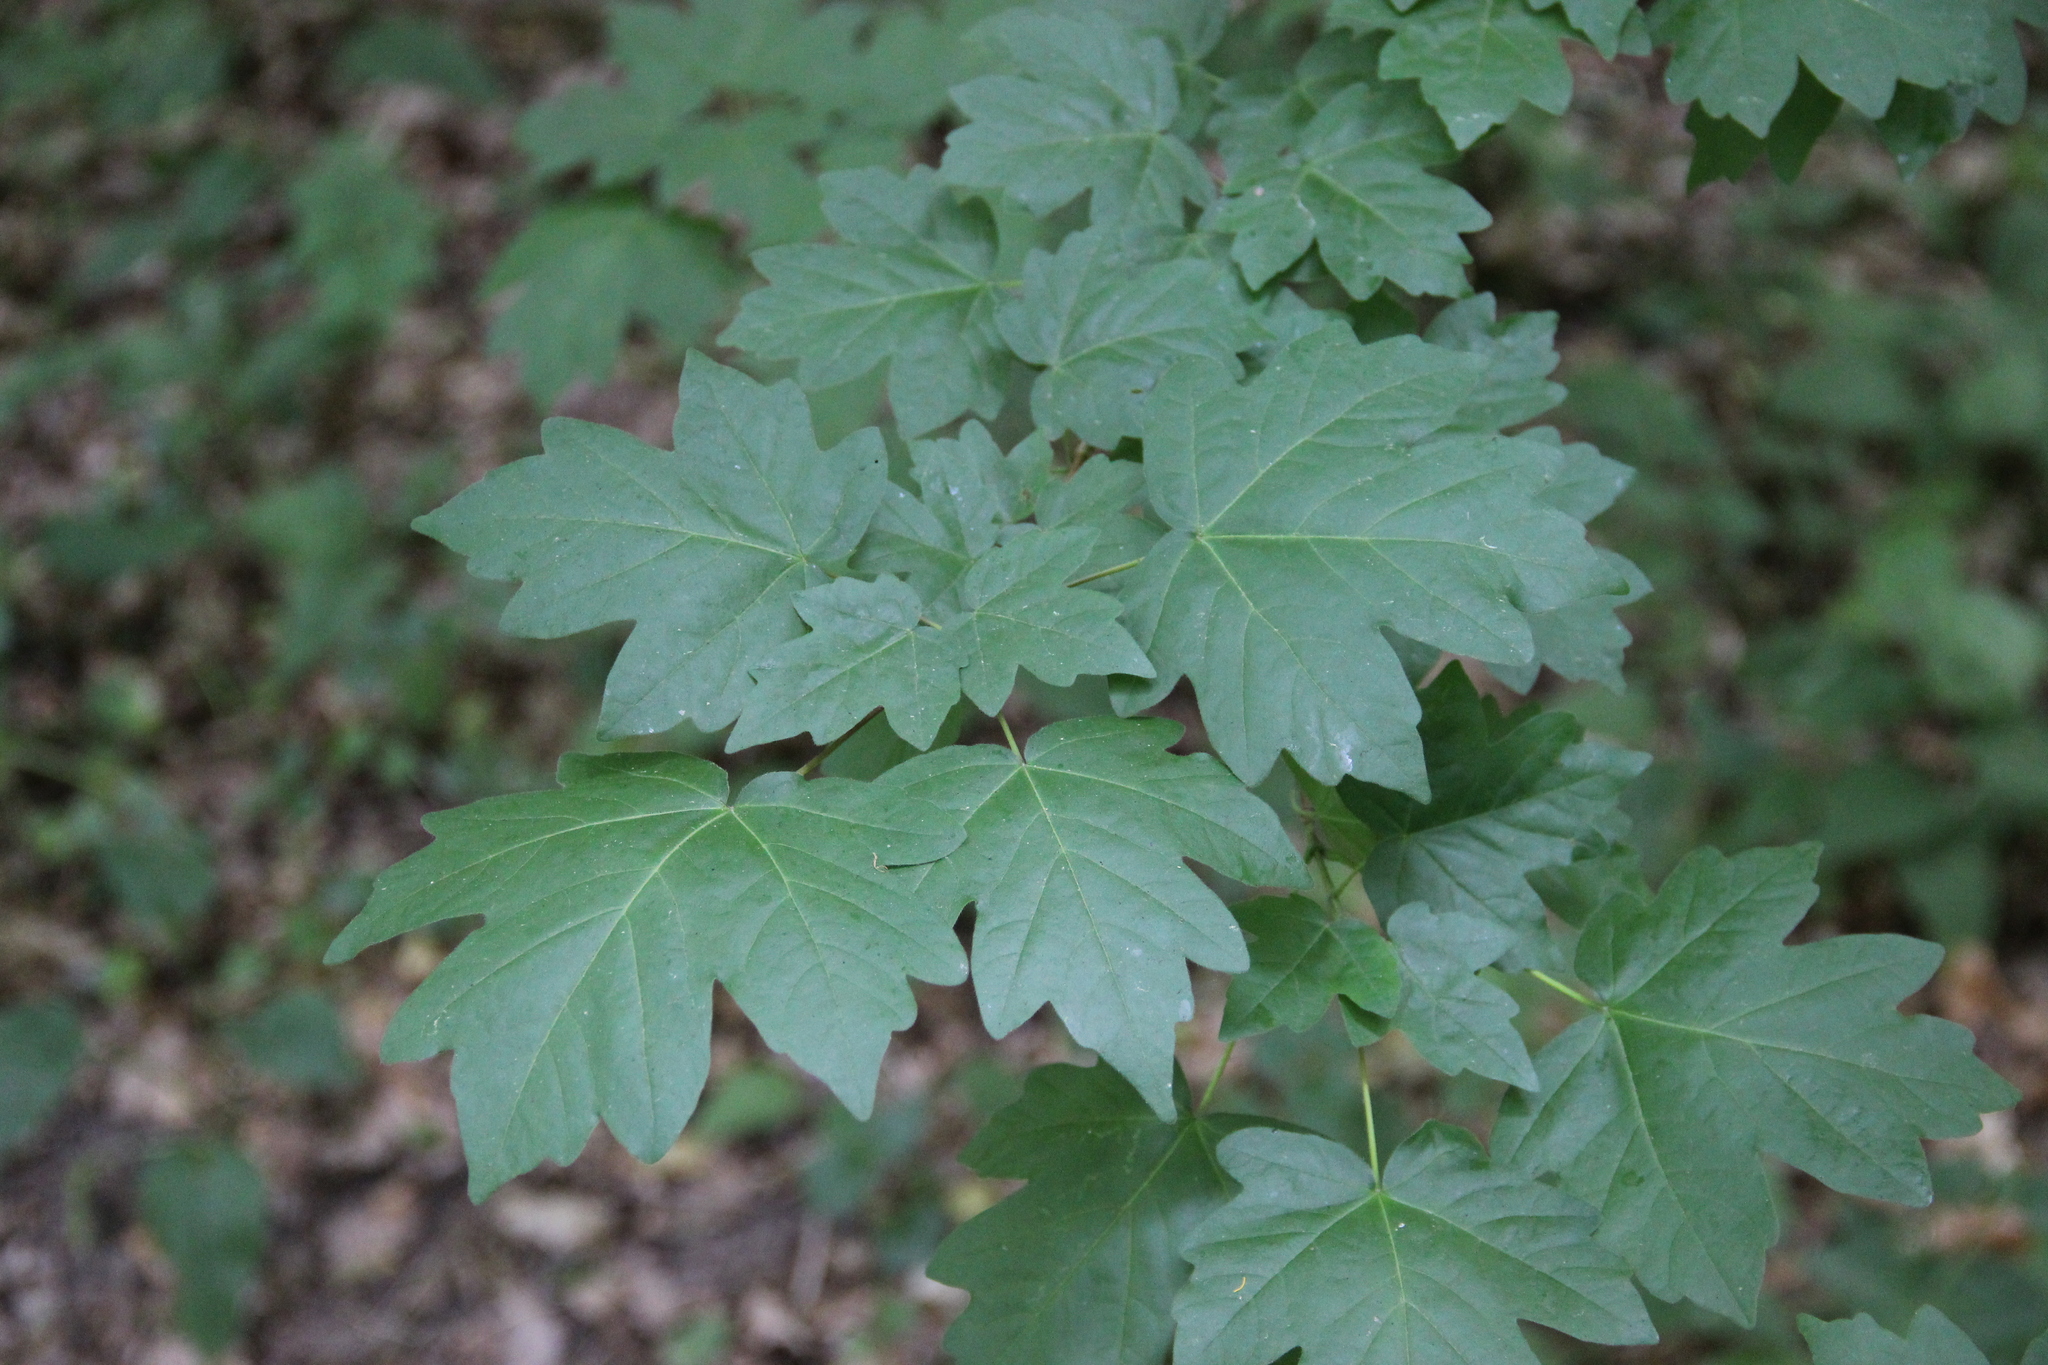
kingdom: Plantae
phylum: Tracheophyta
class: Magnoliopsida
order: Sapindales
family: Sapindaceae
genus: Acer
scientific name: Acer campestre
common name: Field maple
